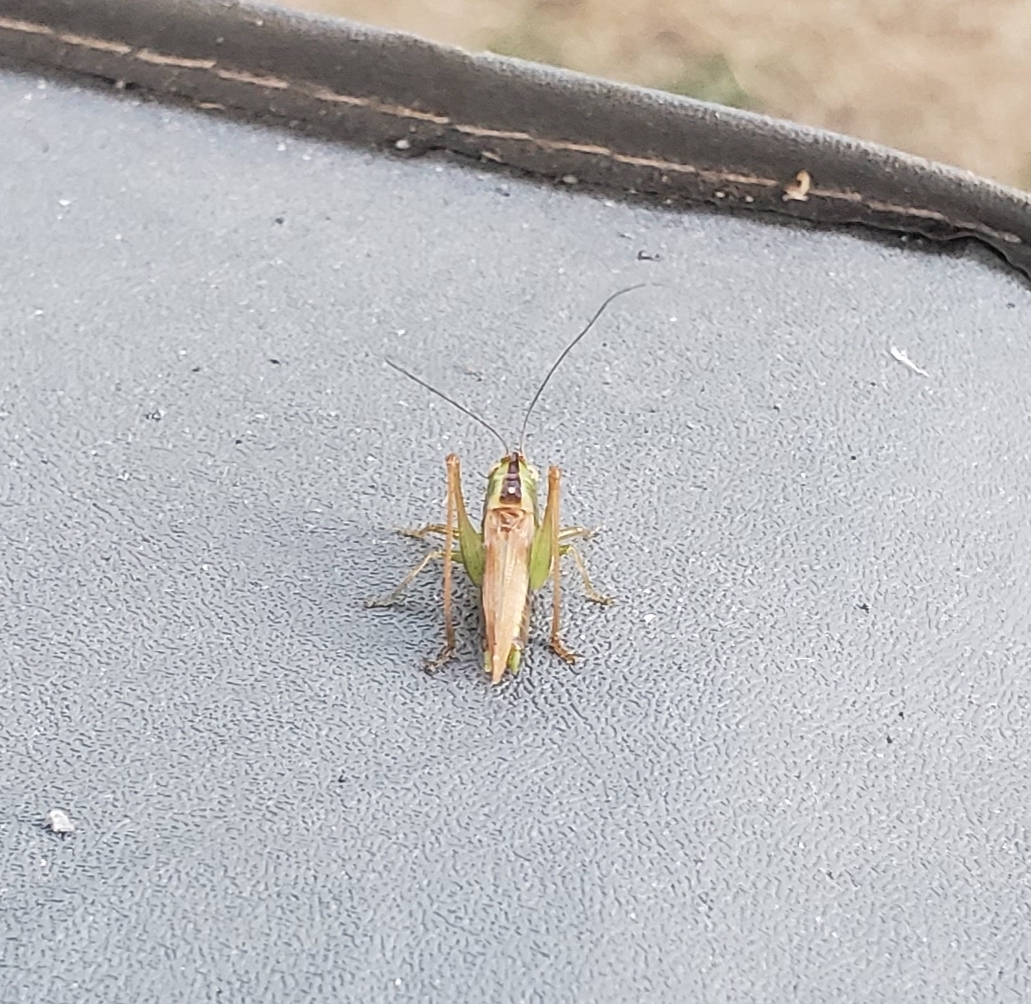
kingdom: Animalia
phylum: Arthropoda
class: Insecta
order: Orthoptera
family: Tettigoniidae
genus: Conocephalus
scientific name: Conocephalus fasciatus
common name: Slender meadow katydid
